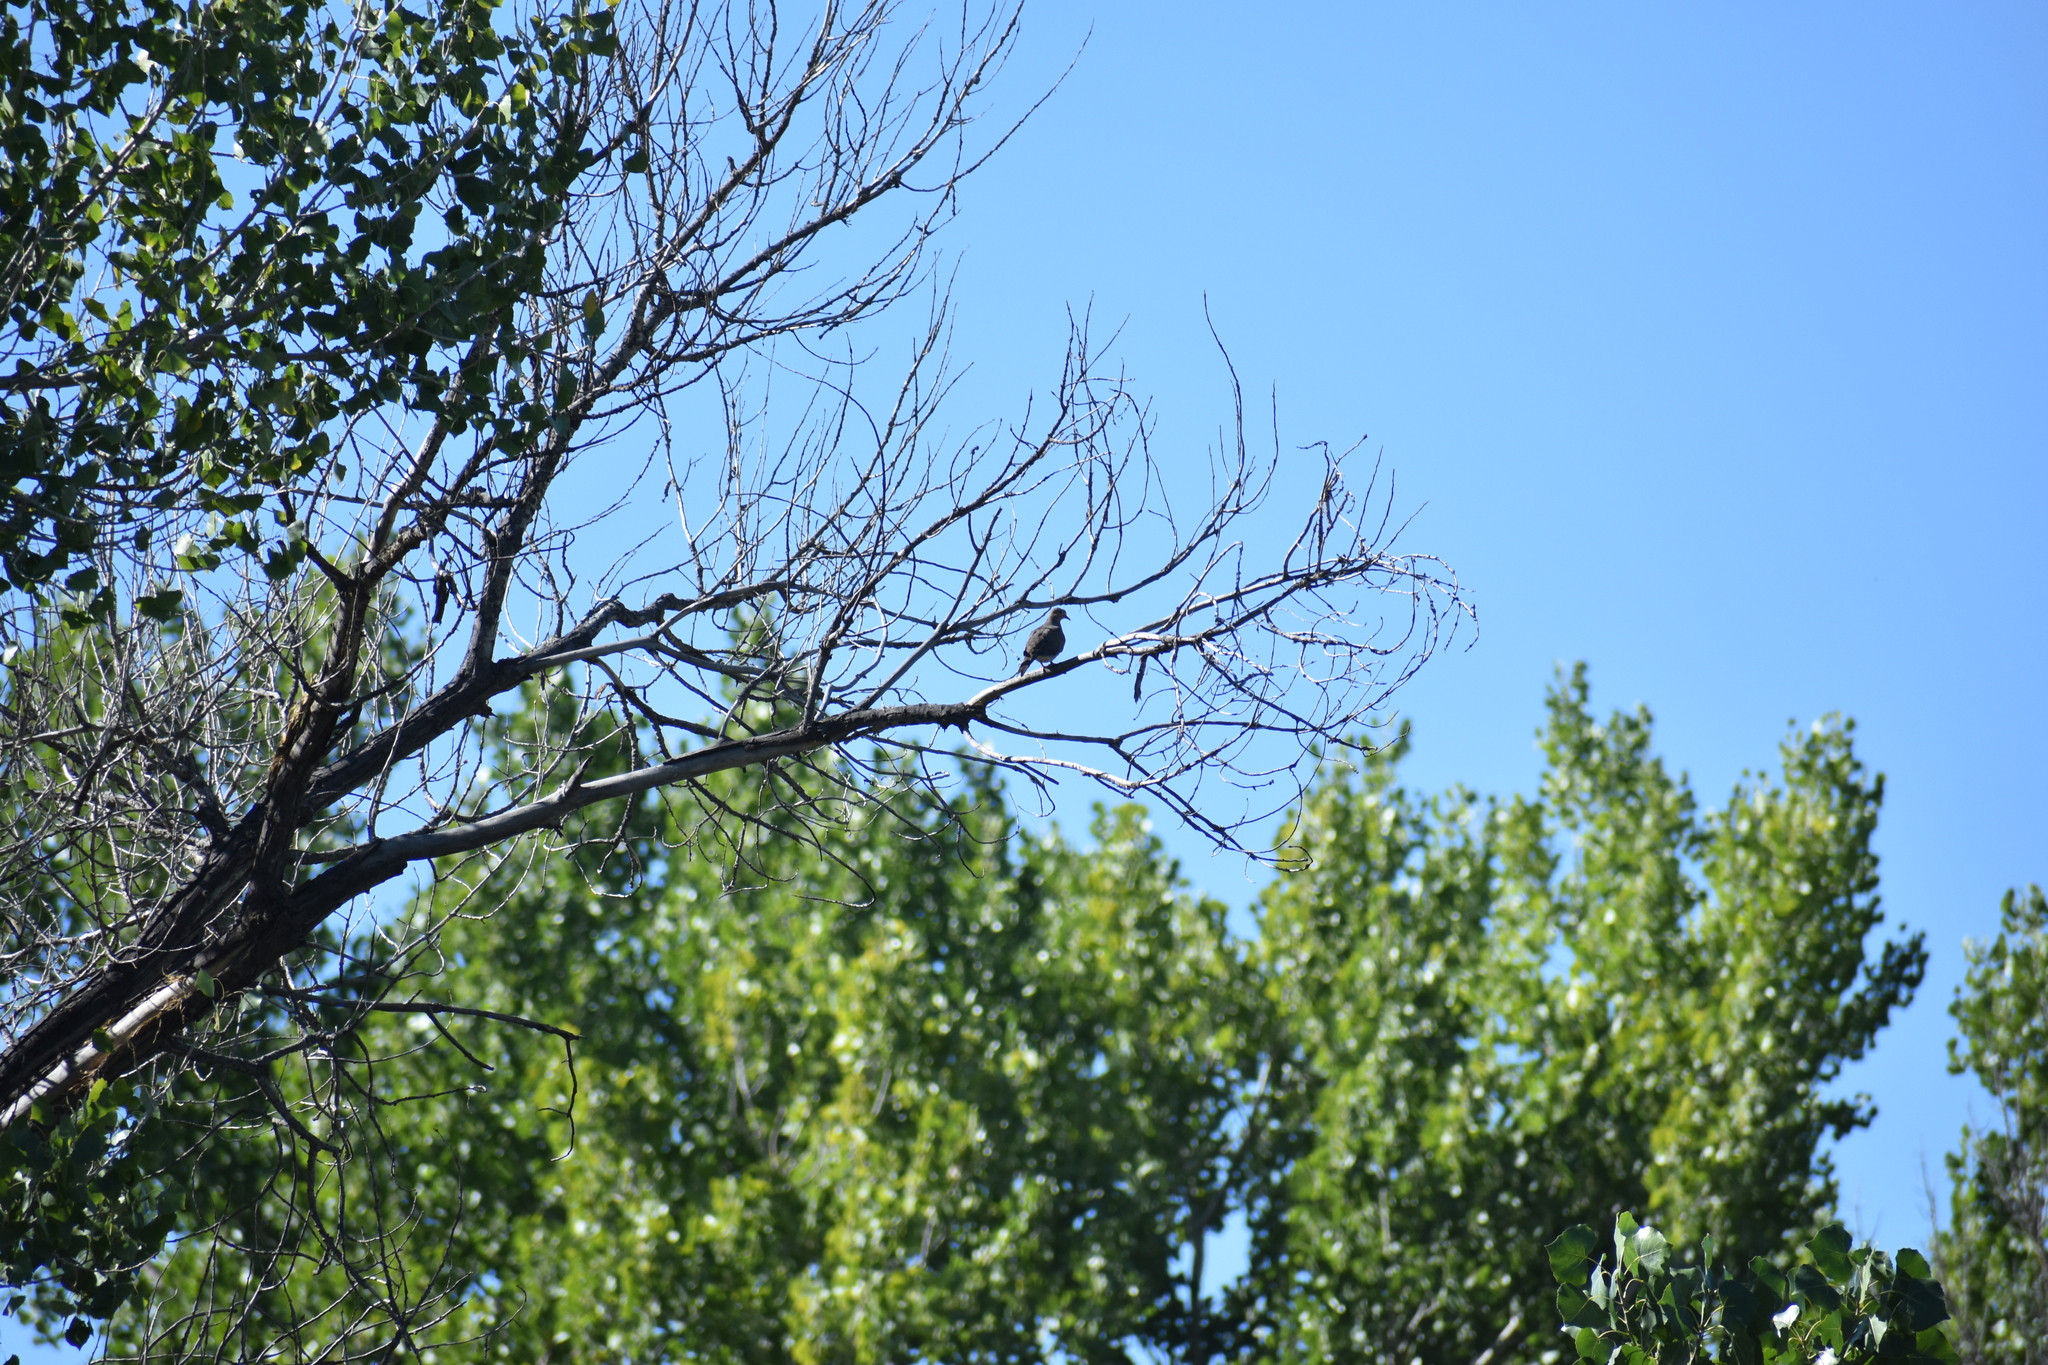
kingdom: Animalia
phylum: Chordata
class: Aves
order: Columbiformes
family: Columbidae
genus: Zenaida
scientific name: Zenaida macroura
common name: Mourning dove
